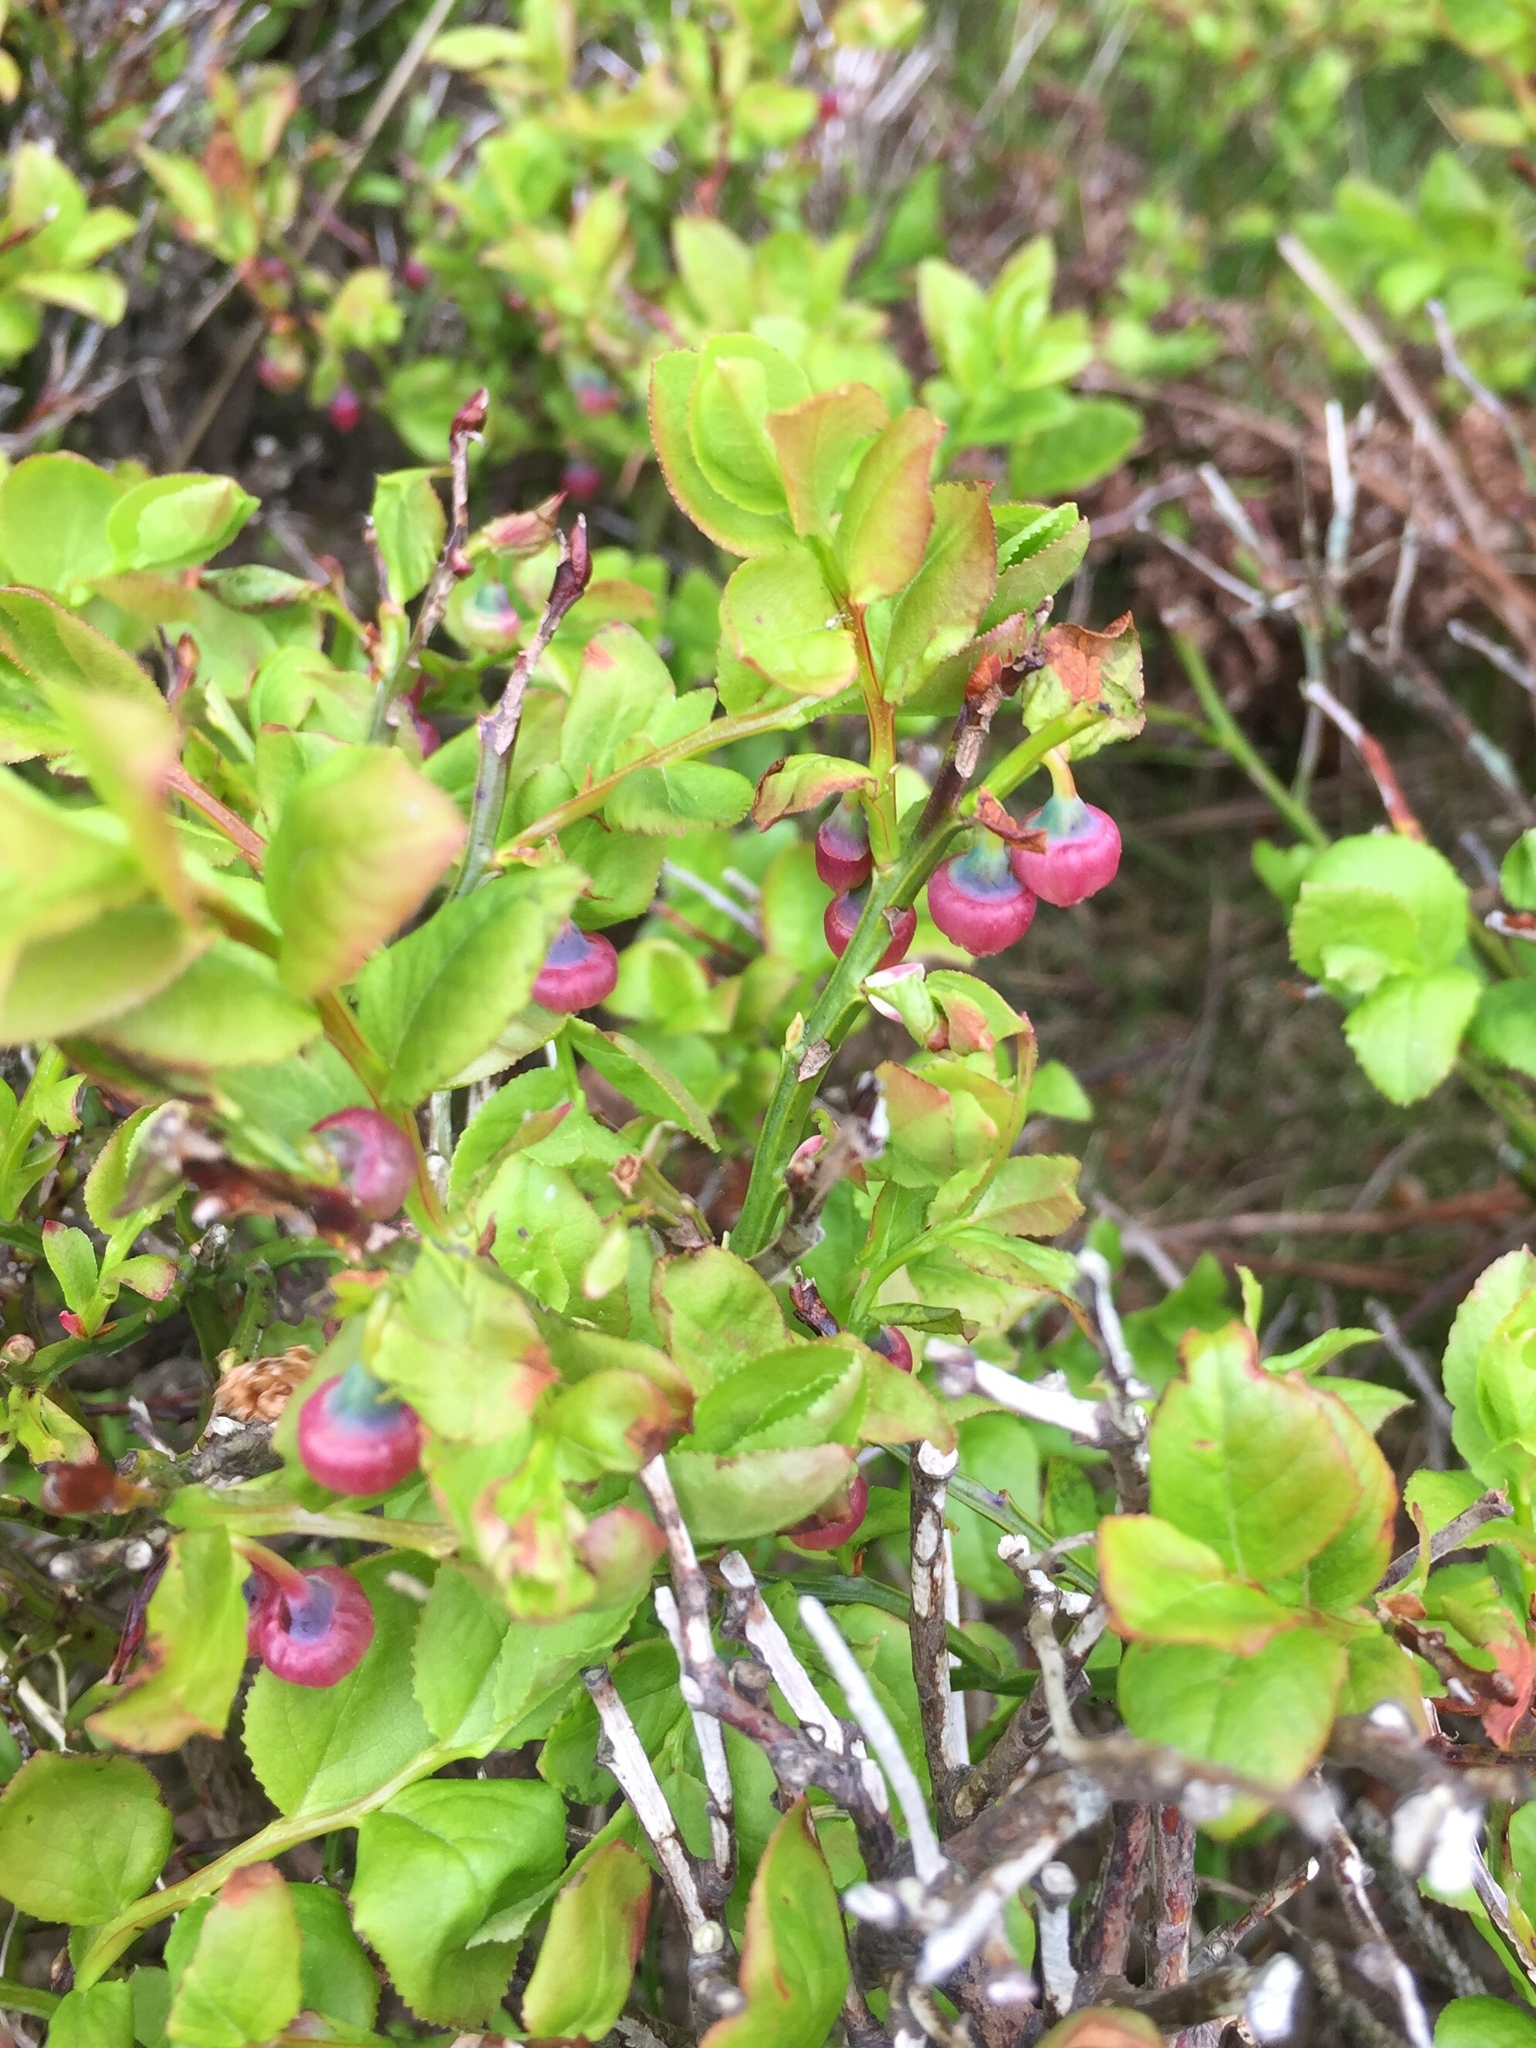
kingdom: Plantae
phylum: Tracheophyta
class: Magnoliopsida
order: Ericales
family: Ericaceae
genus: Vaccinium
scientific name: Vaccinium myrtillus
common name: Bilberry
